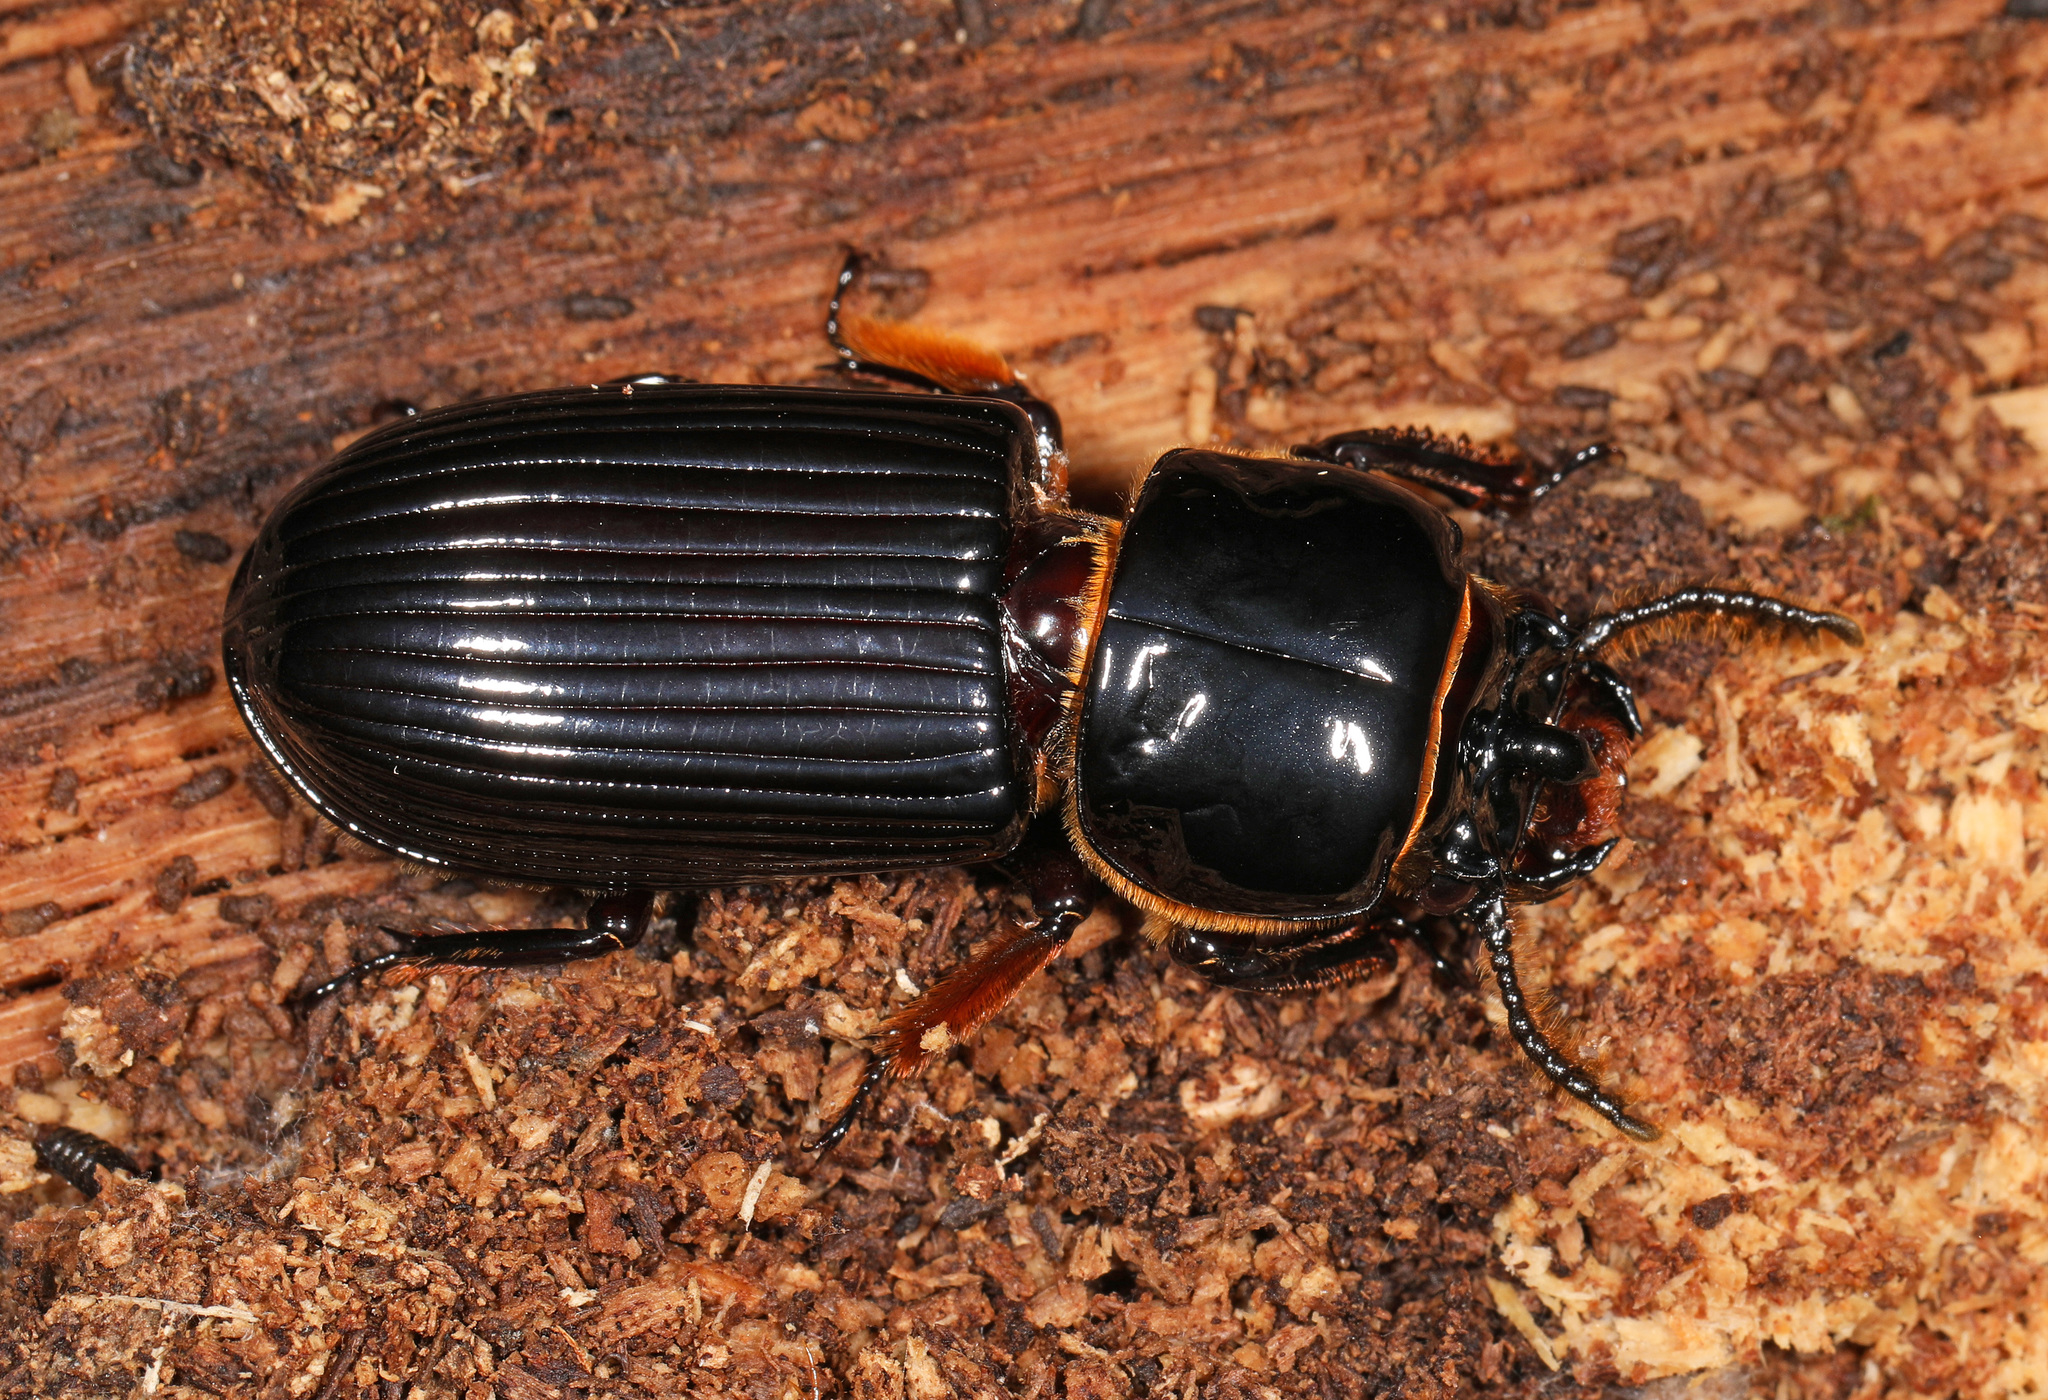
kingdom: Animalia
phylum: Arthropoda
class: Insecta
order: Coleoptera
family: Passalidae
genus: Odontotaenius
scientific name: Odontotaenius disjunctus
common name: Patent leather beetle
